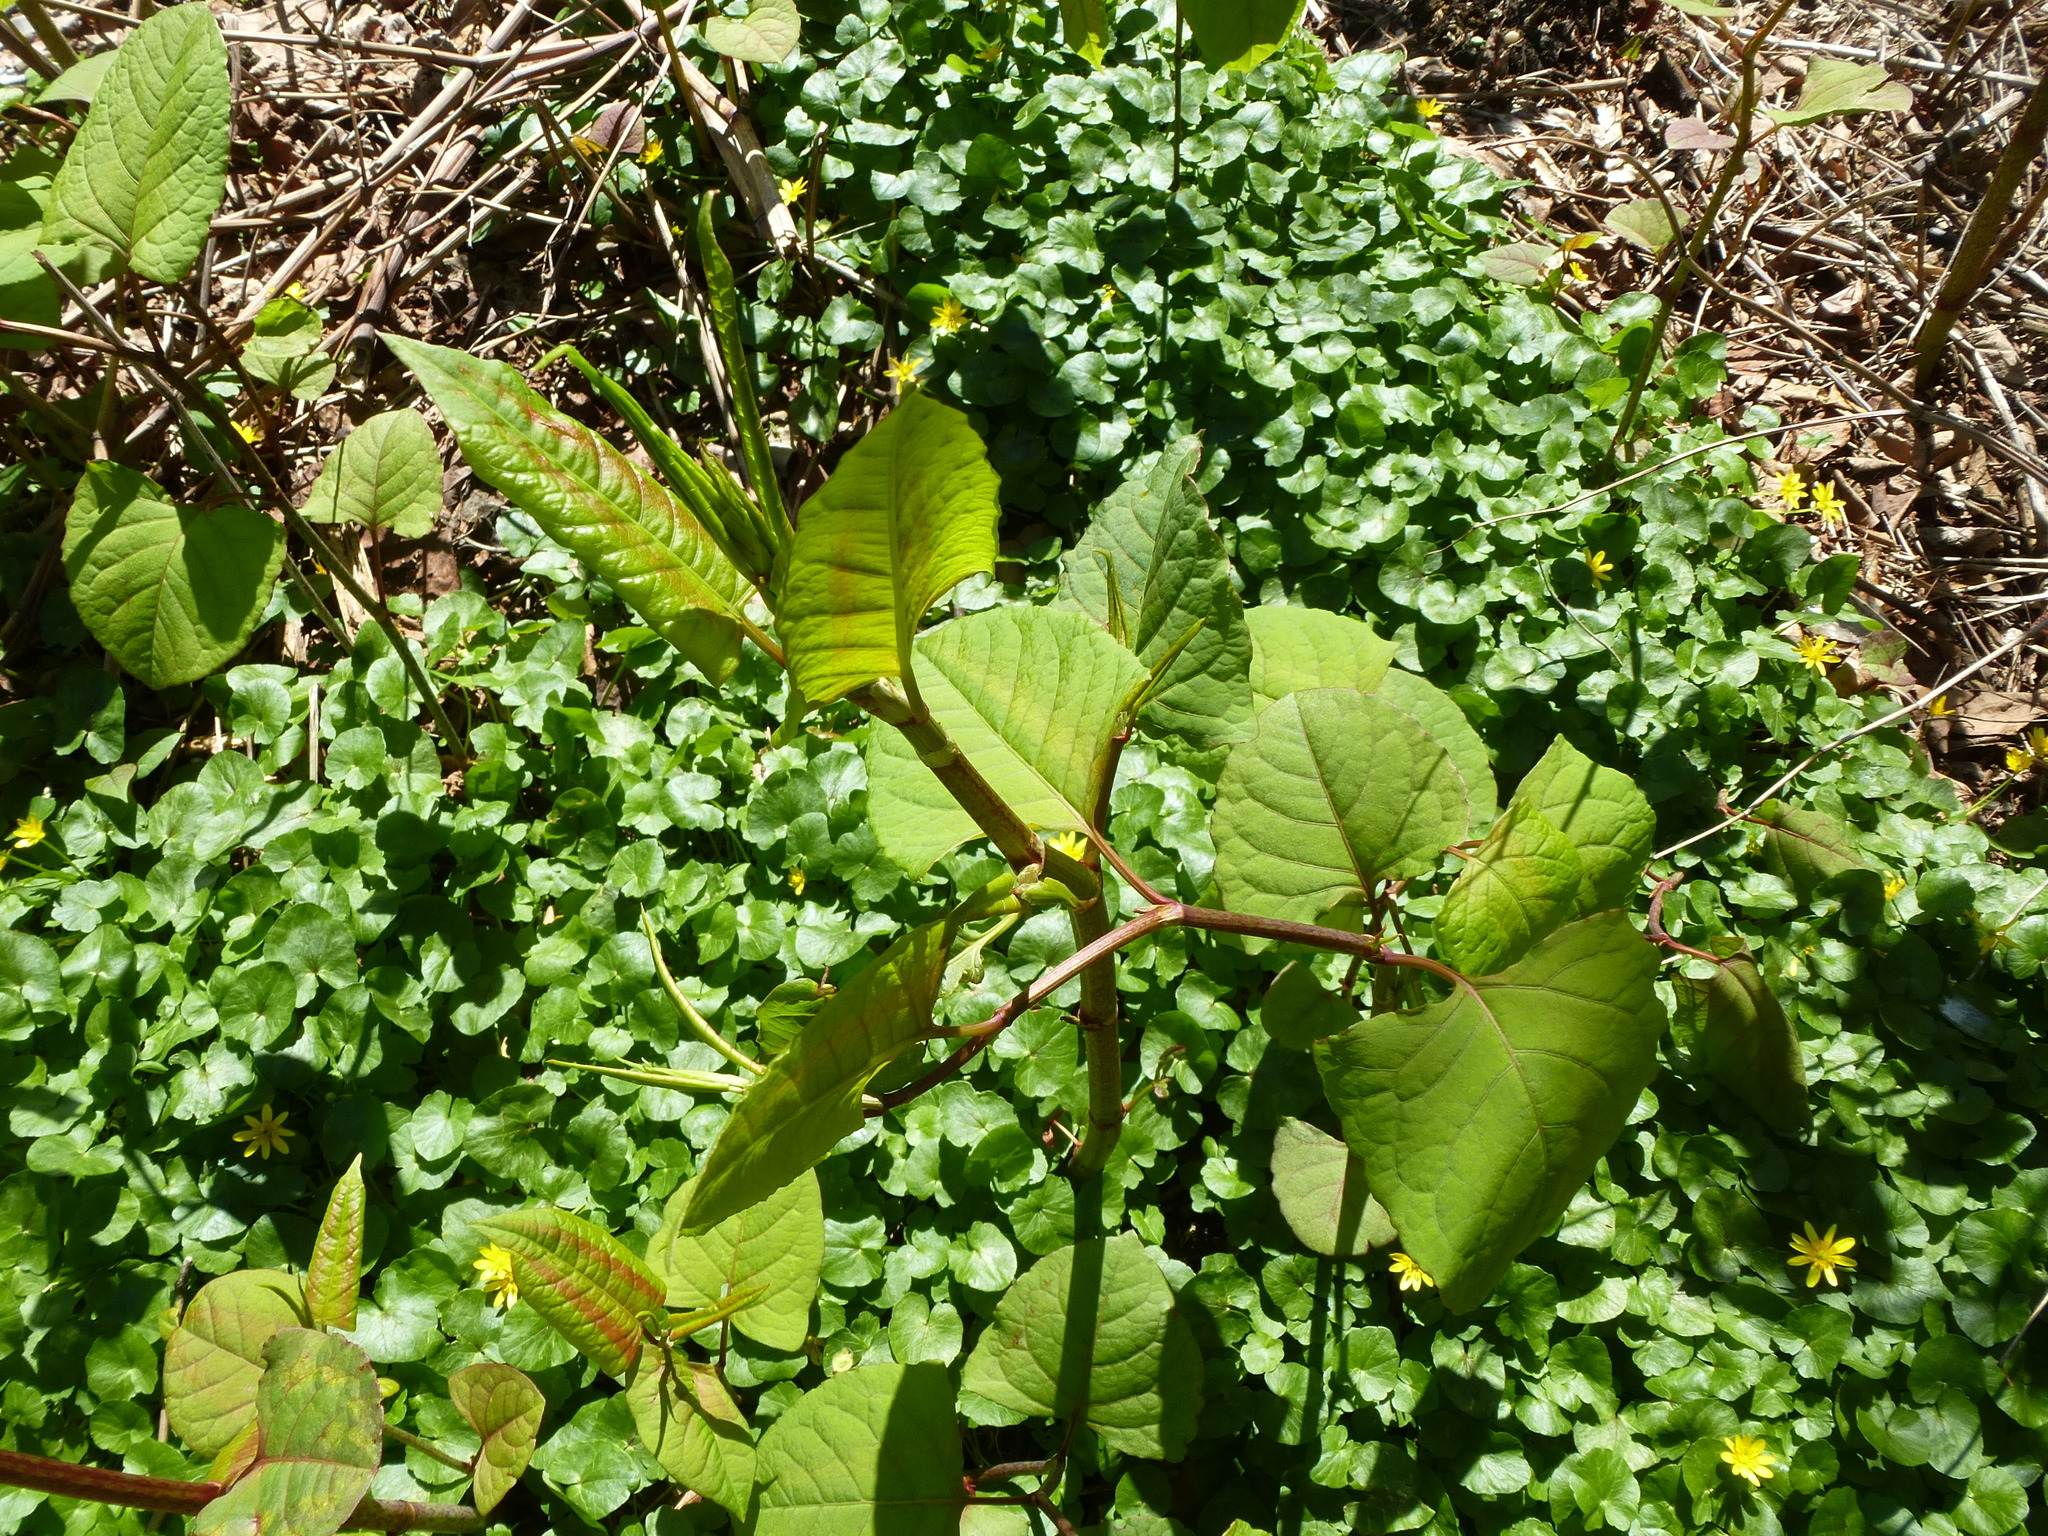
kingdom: Plantae
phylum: Tracheophyta
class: Magnoliopsida
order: Caryophyllales
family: Polygonaceae
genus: Reynoutria
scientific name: Reynoutria japonica
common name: Japanese knotweed
